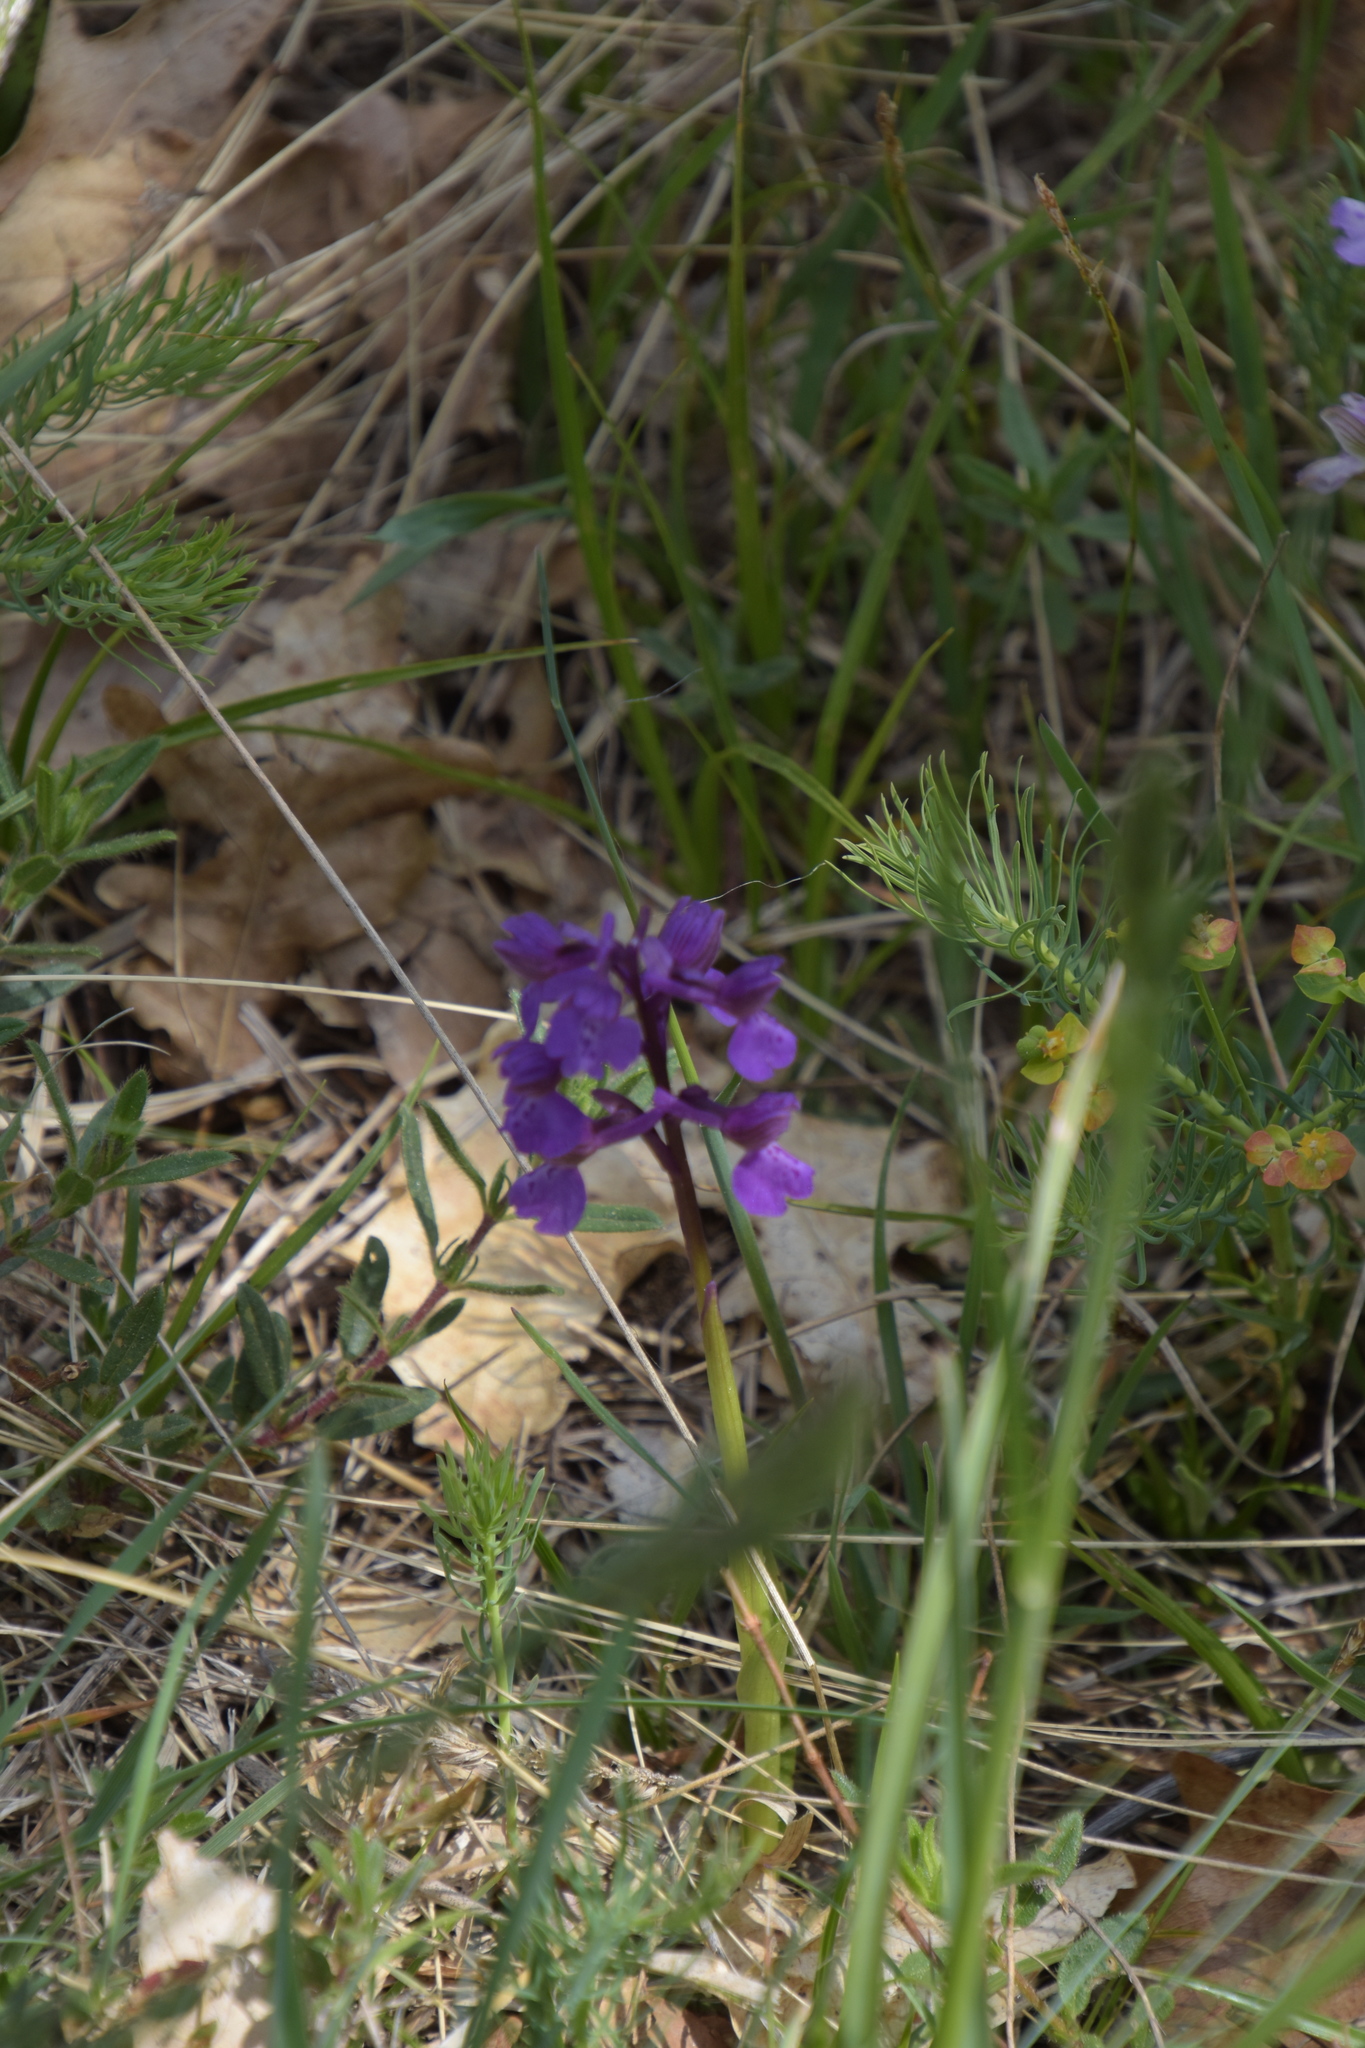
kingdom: Plantae
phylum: Tracheophyta
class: Liliopsida
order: Asparagales
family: Orchidaceae
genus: Anacamptis
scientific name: Anacamptis morio
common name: Green-winged orchid
